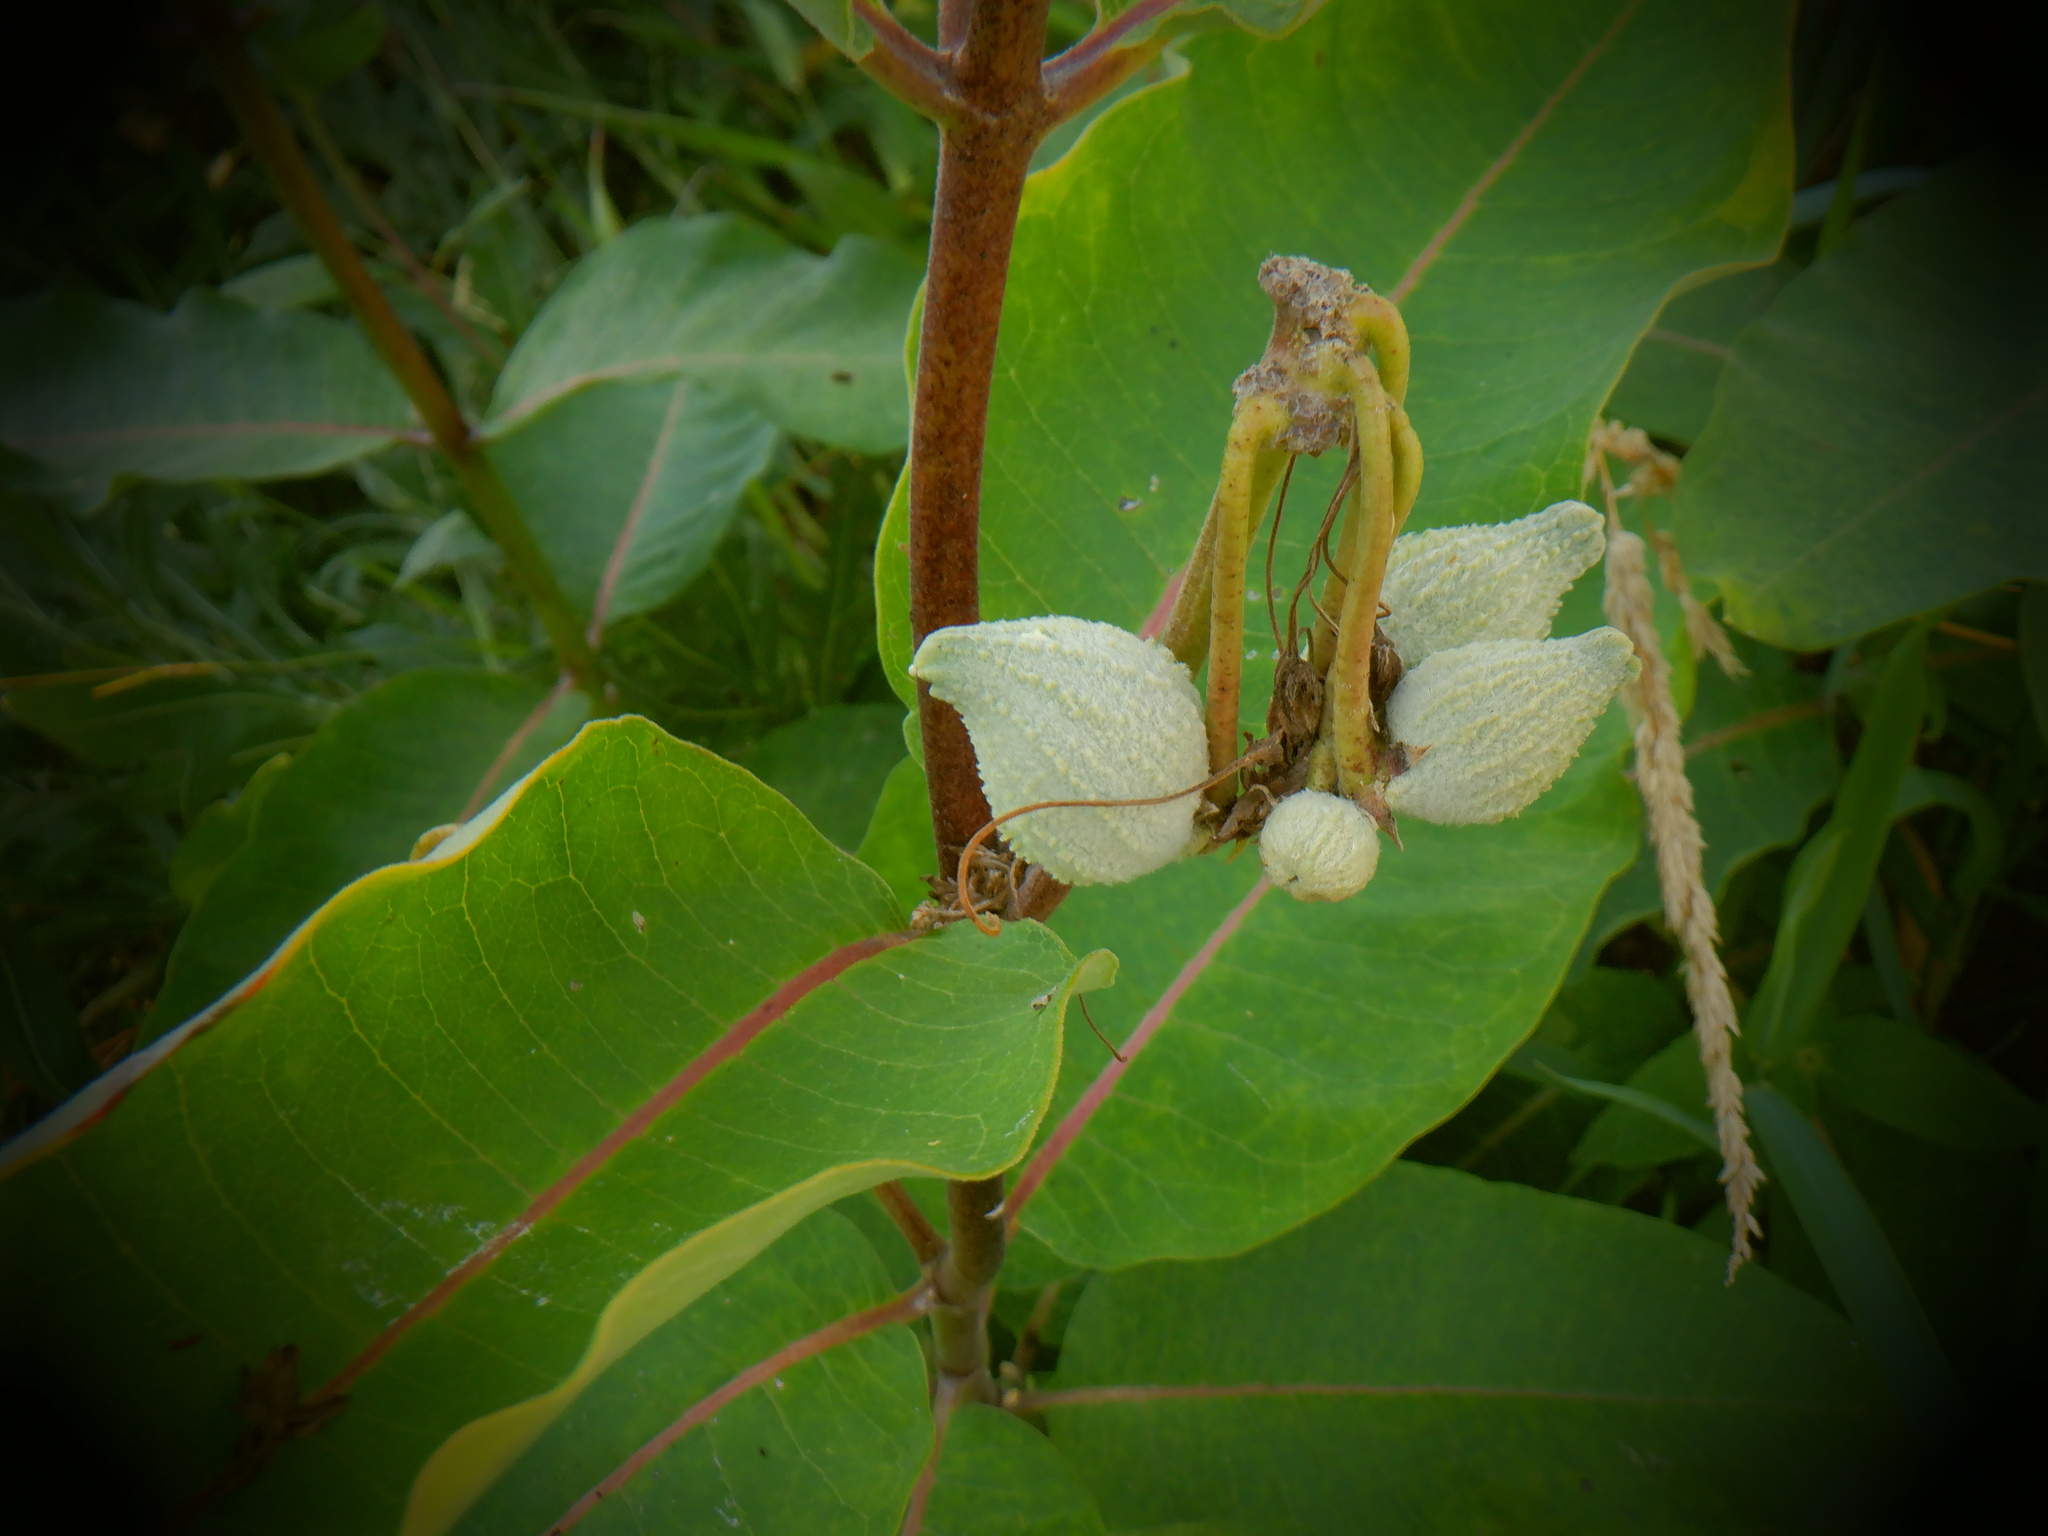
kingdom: Plantae
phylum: Tracheophyta
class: Liliopsida
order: Poales
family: Poaceae
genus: Phalaris
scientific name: Phalaris arundinacea
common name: Reed canary-grass
